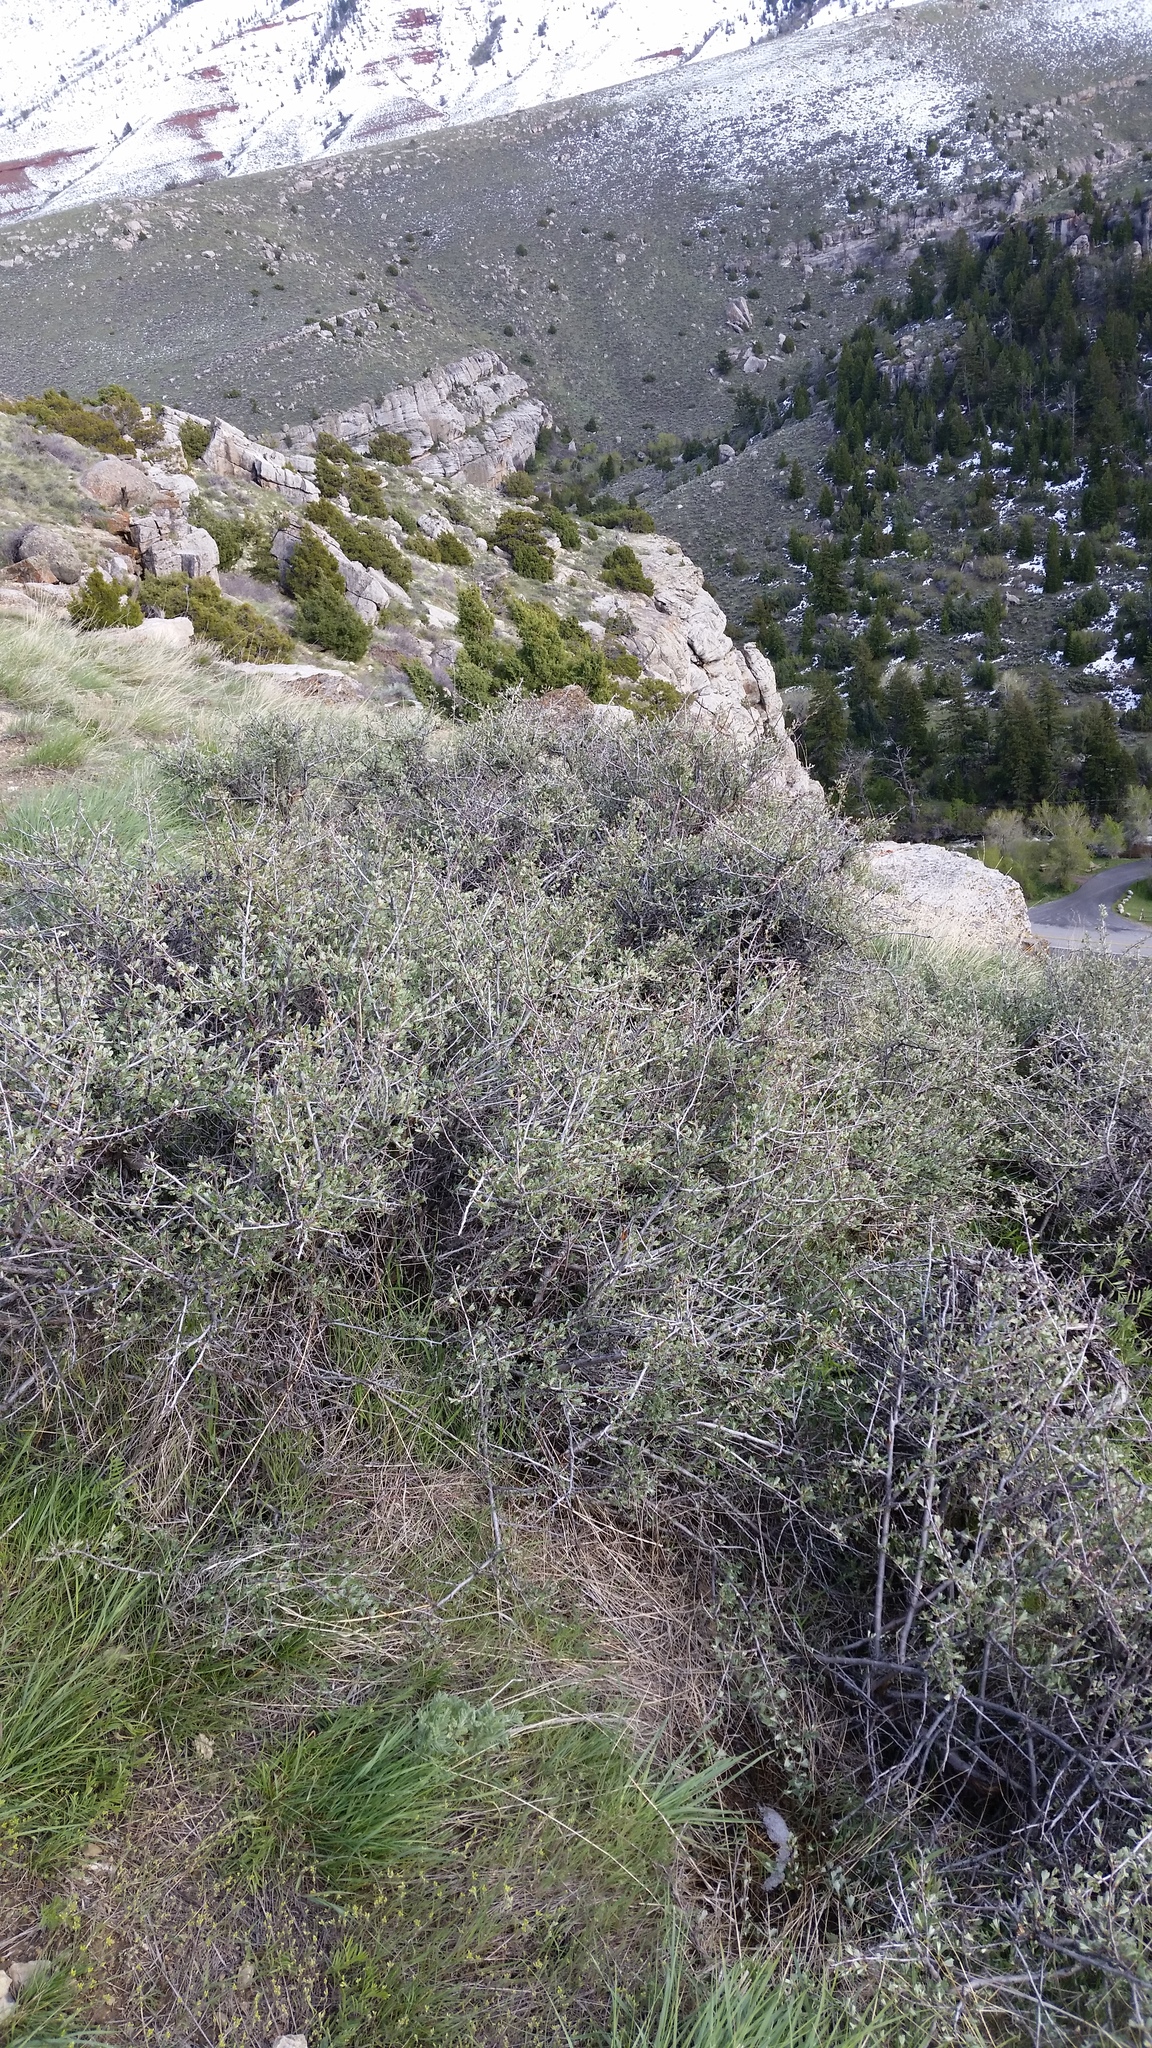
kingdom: Plantae
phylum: Tracheophyta
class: Magnoliopsida
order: Rosales
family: Rosaceae
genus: Purshia
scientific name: Purshia tridentata
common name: Antelope bitterbrush
